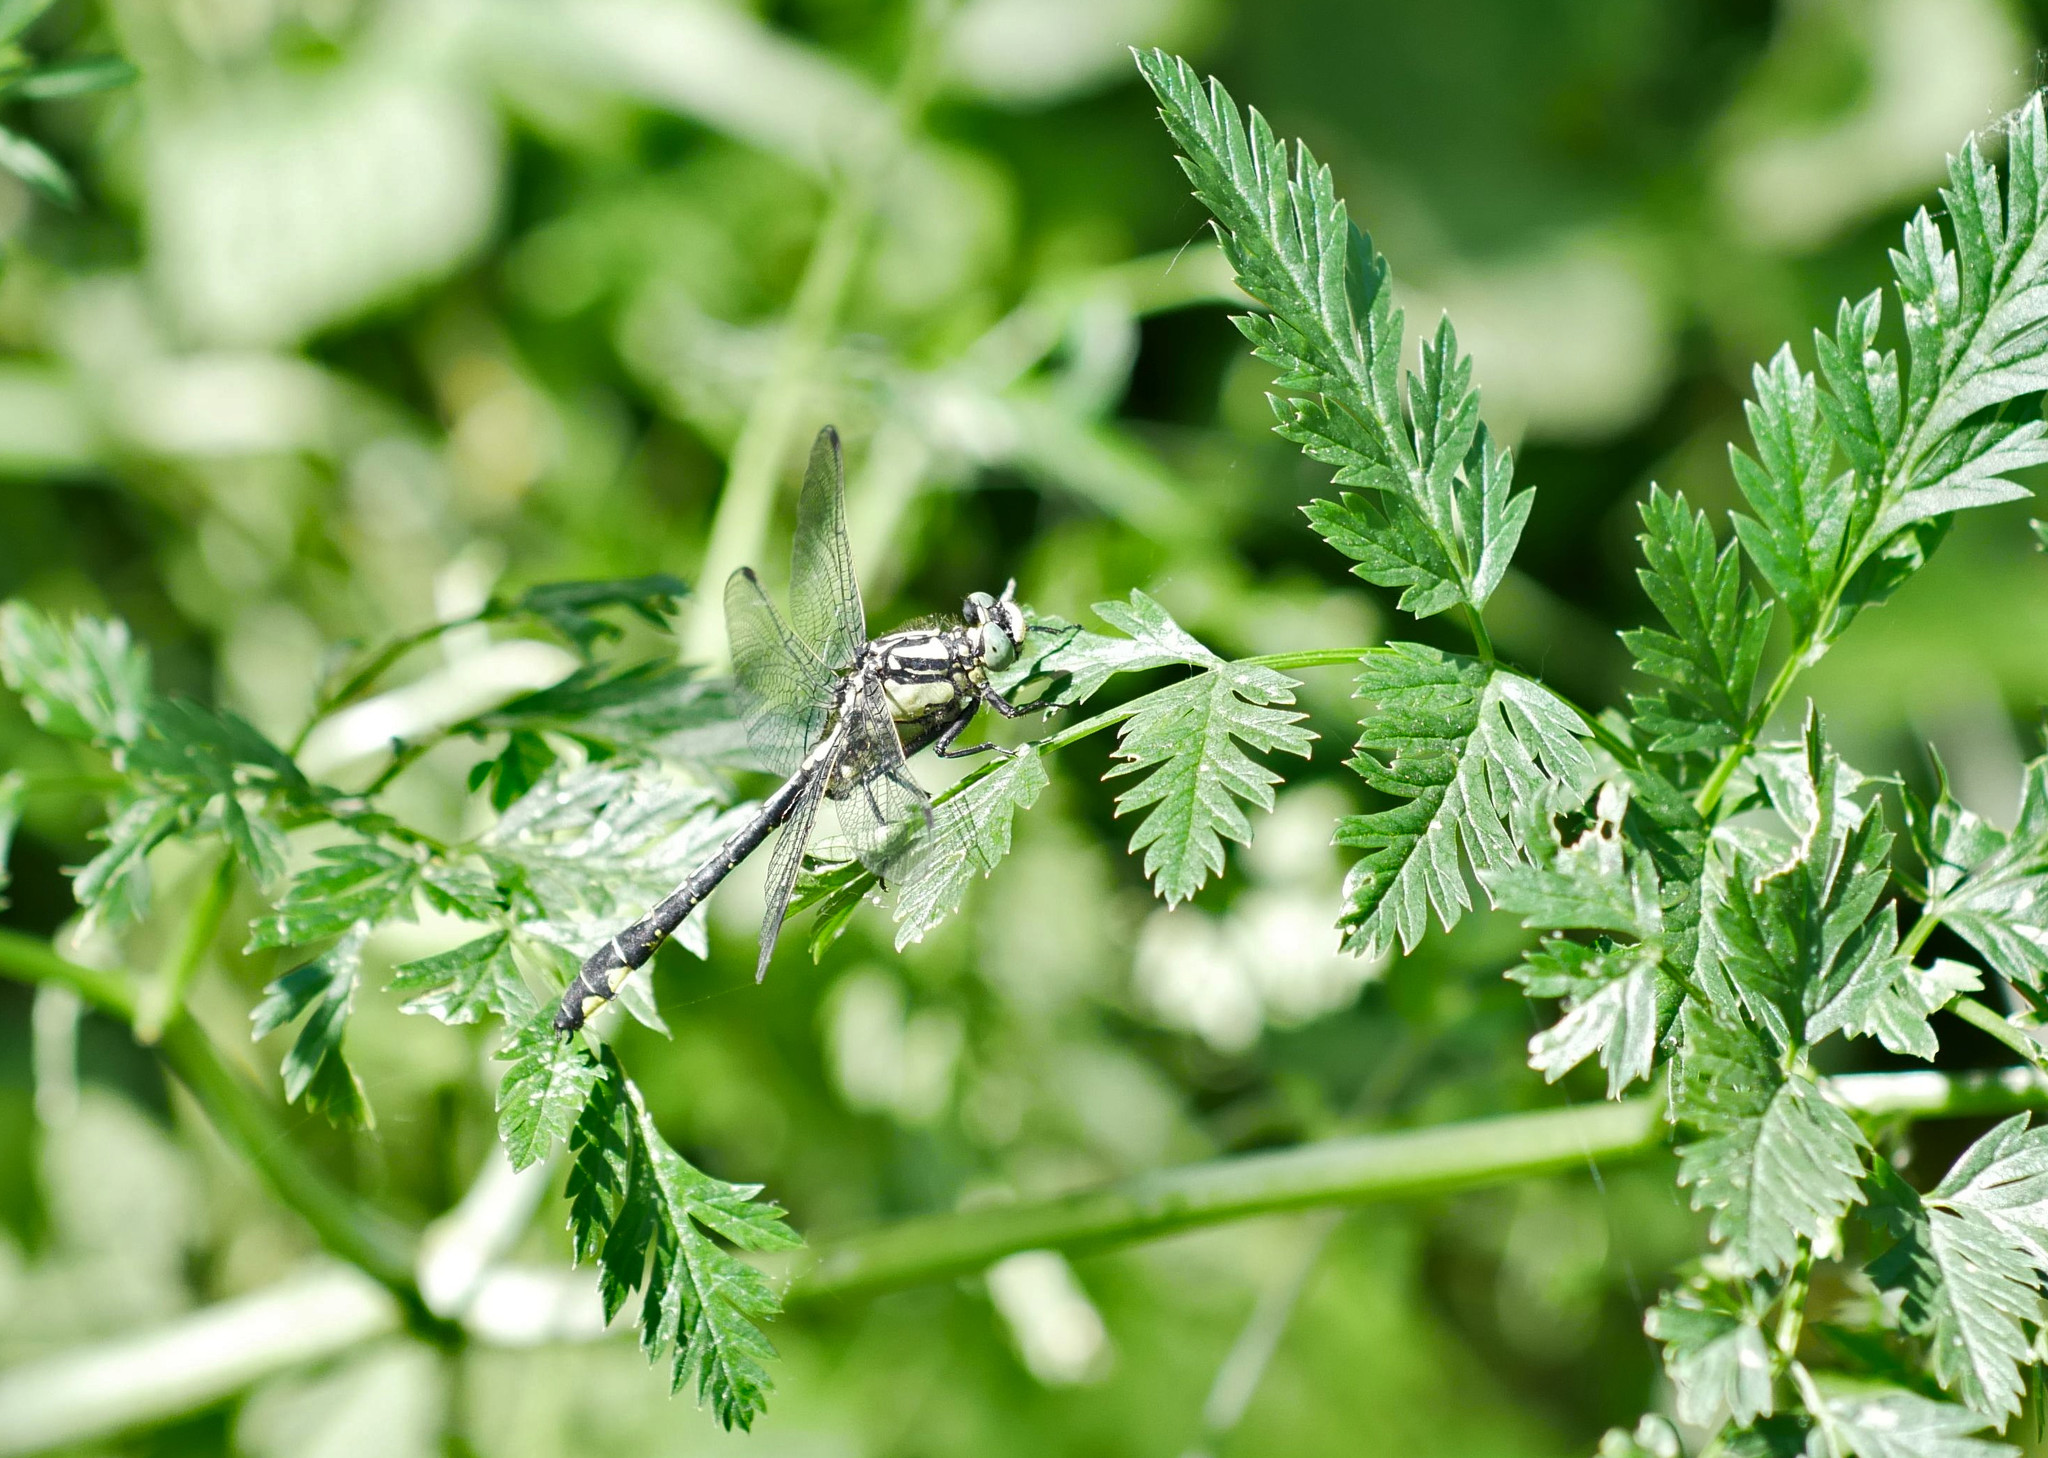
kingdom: Animalia
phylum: Arthropoda
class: Insecta
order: Odonata
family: Gomphidae
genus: Gomphus
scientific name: Gomphus vulgatissimus
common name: Club-tailed dragonfly
